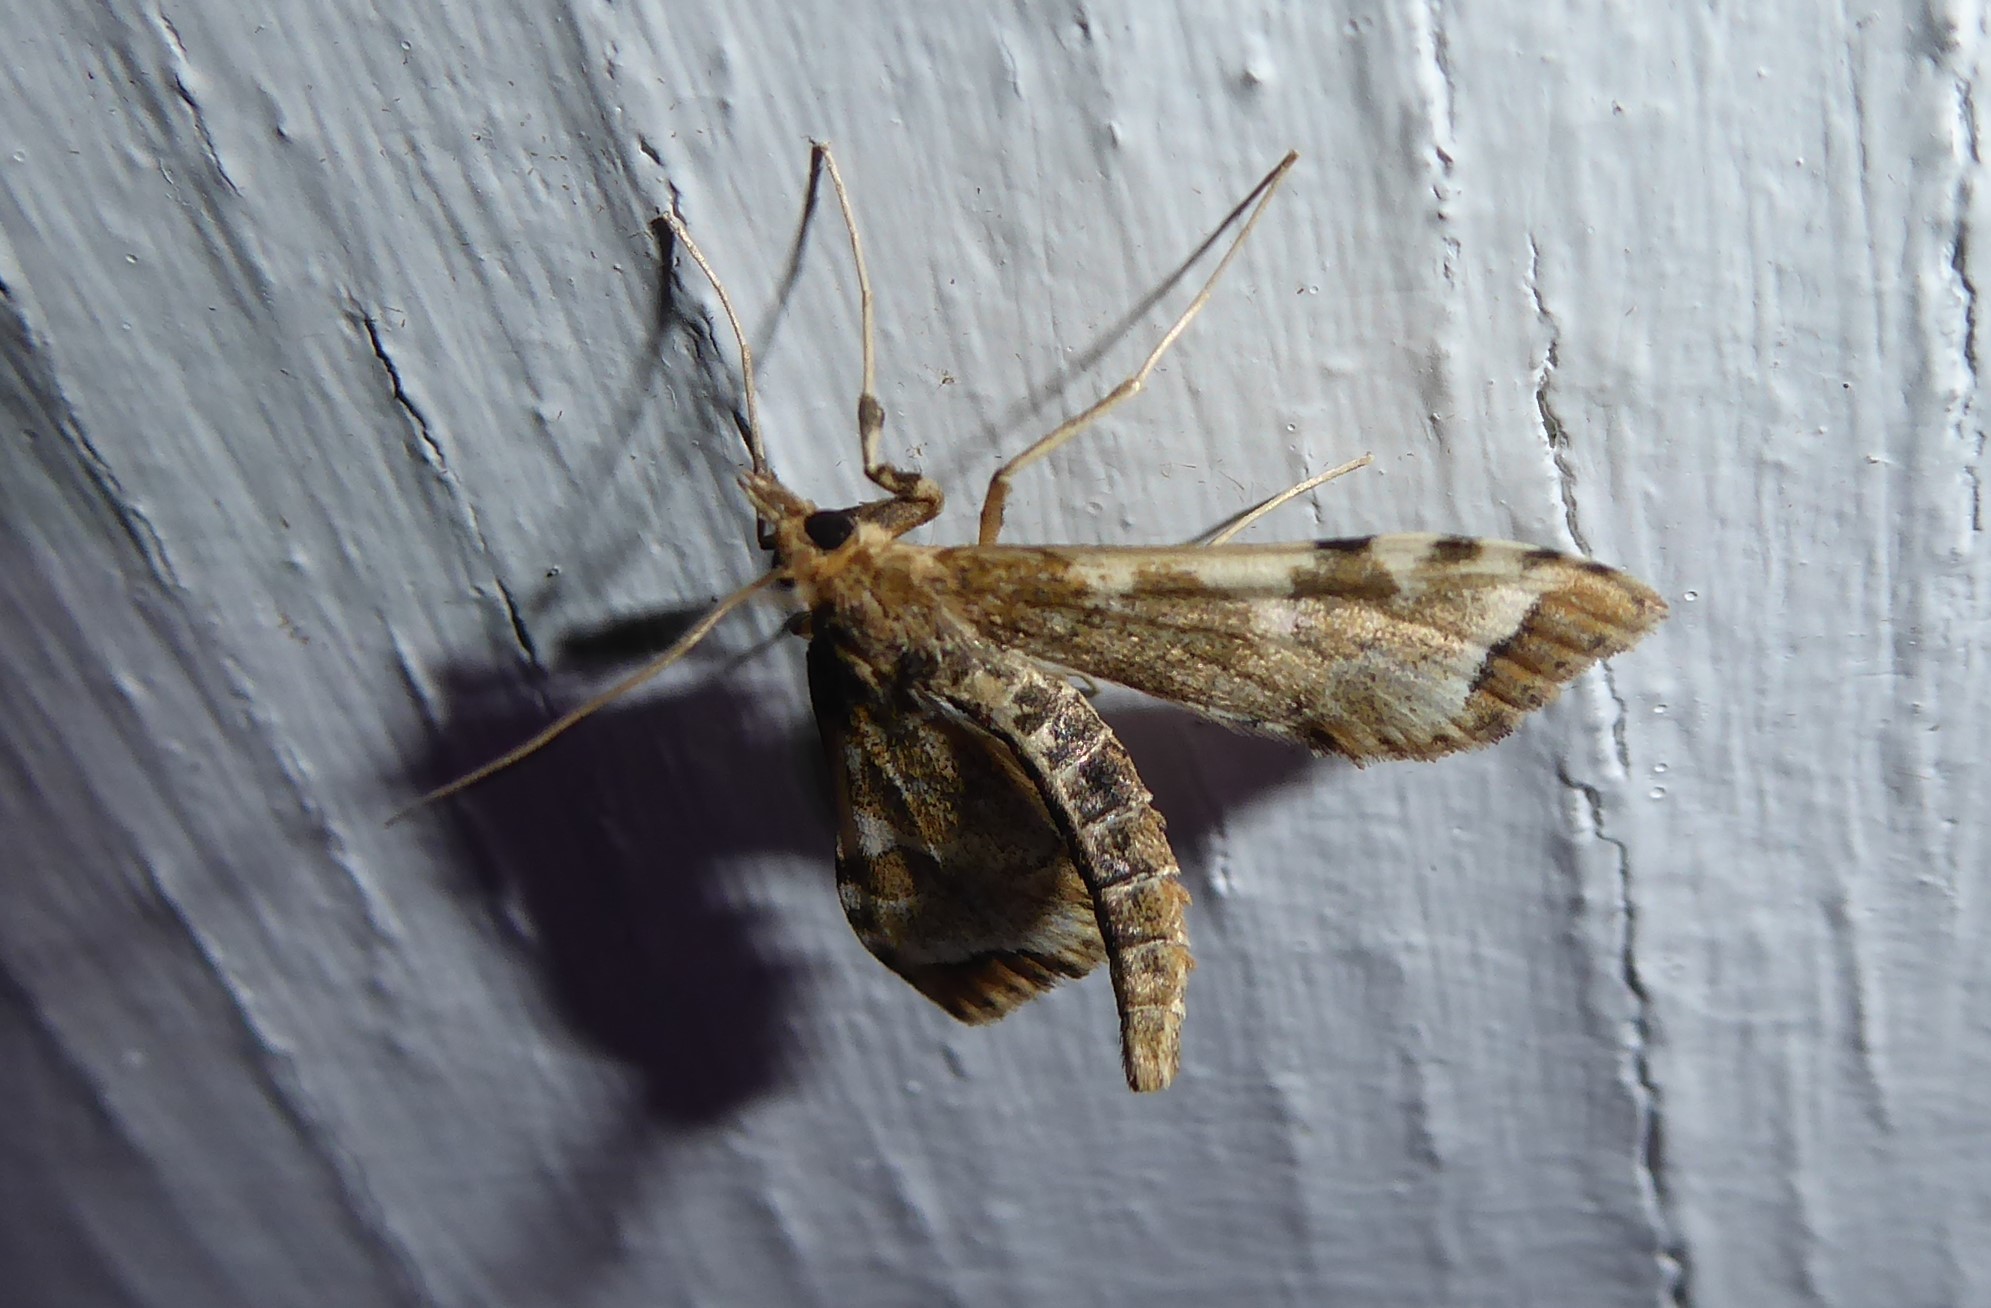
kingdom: Animalia
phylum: Arthropoda
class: Insecta
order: Lepidoptera
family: Crambidae
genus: Sceliodes
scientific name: Sceliodes cordalis
